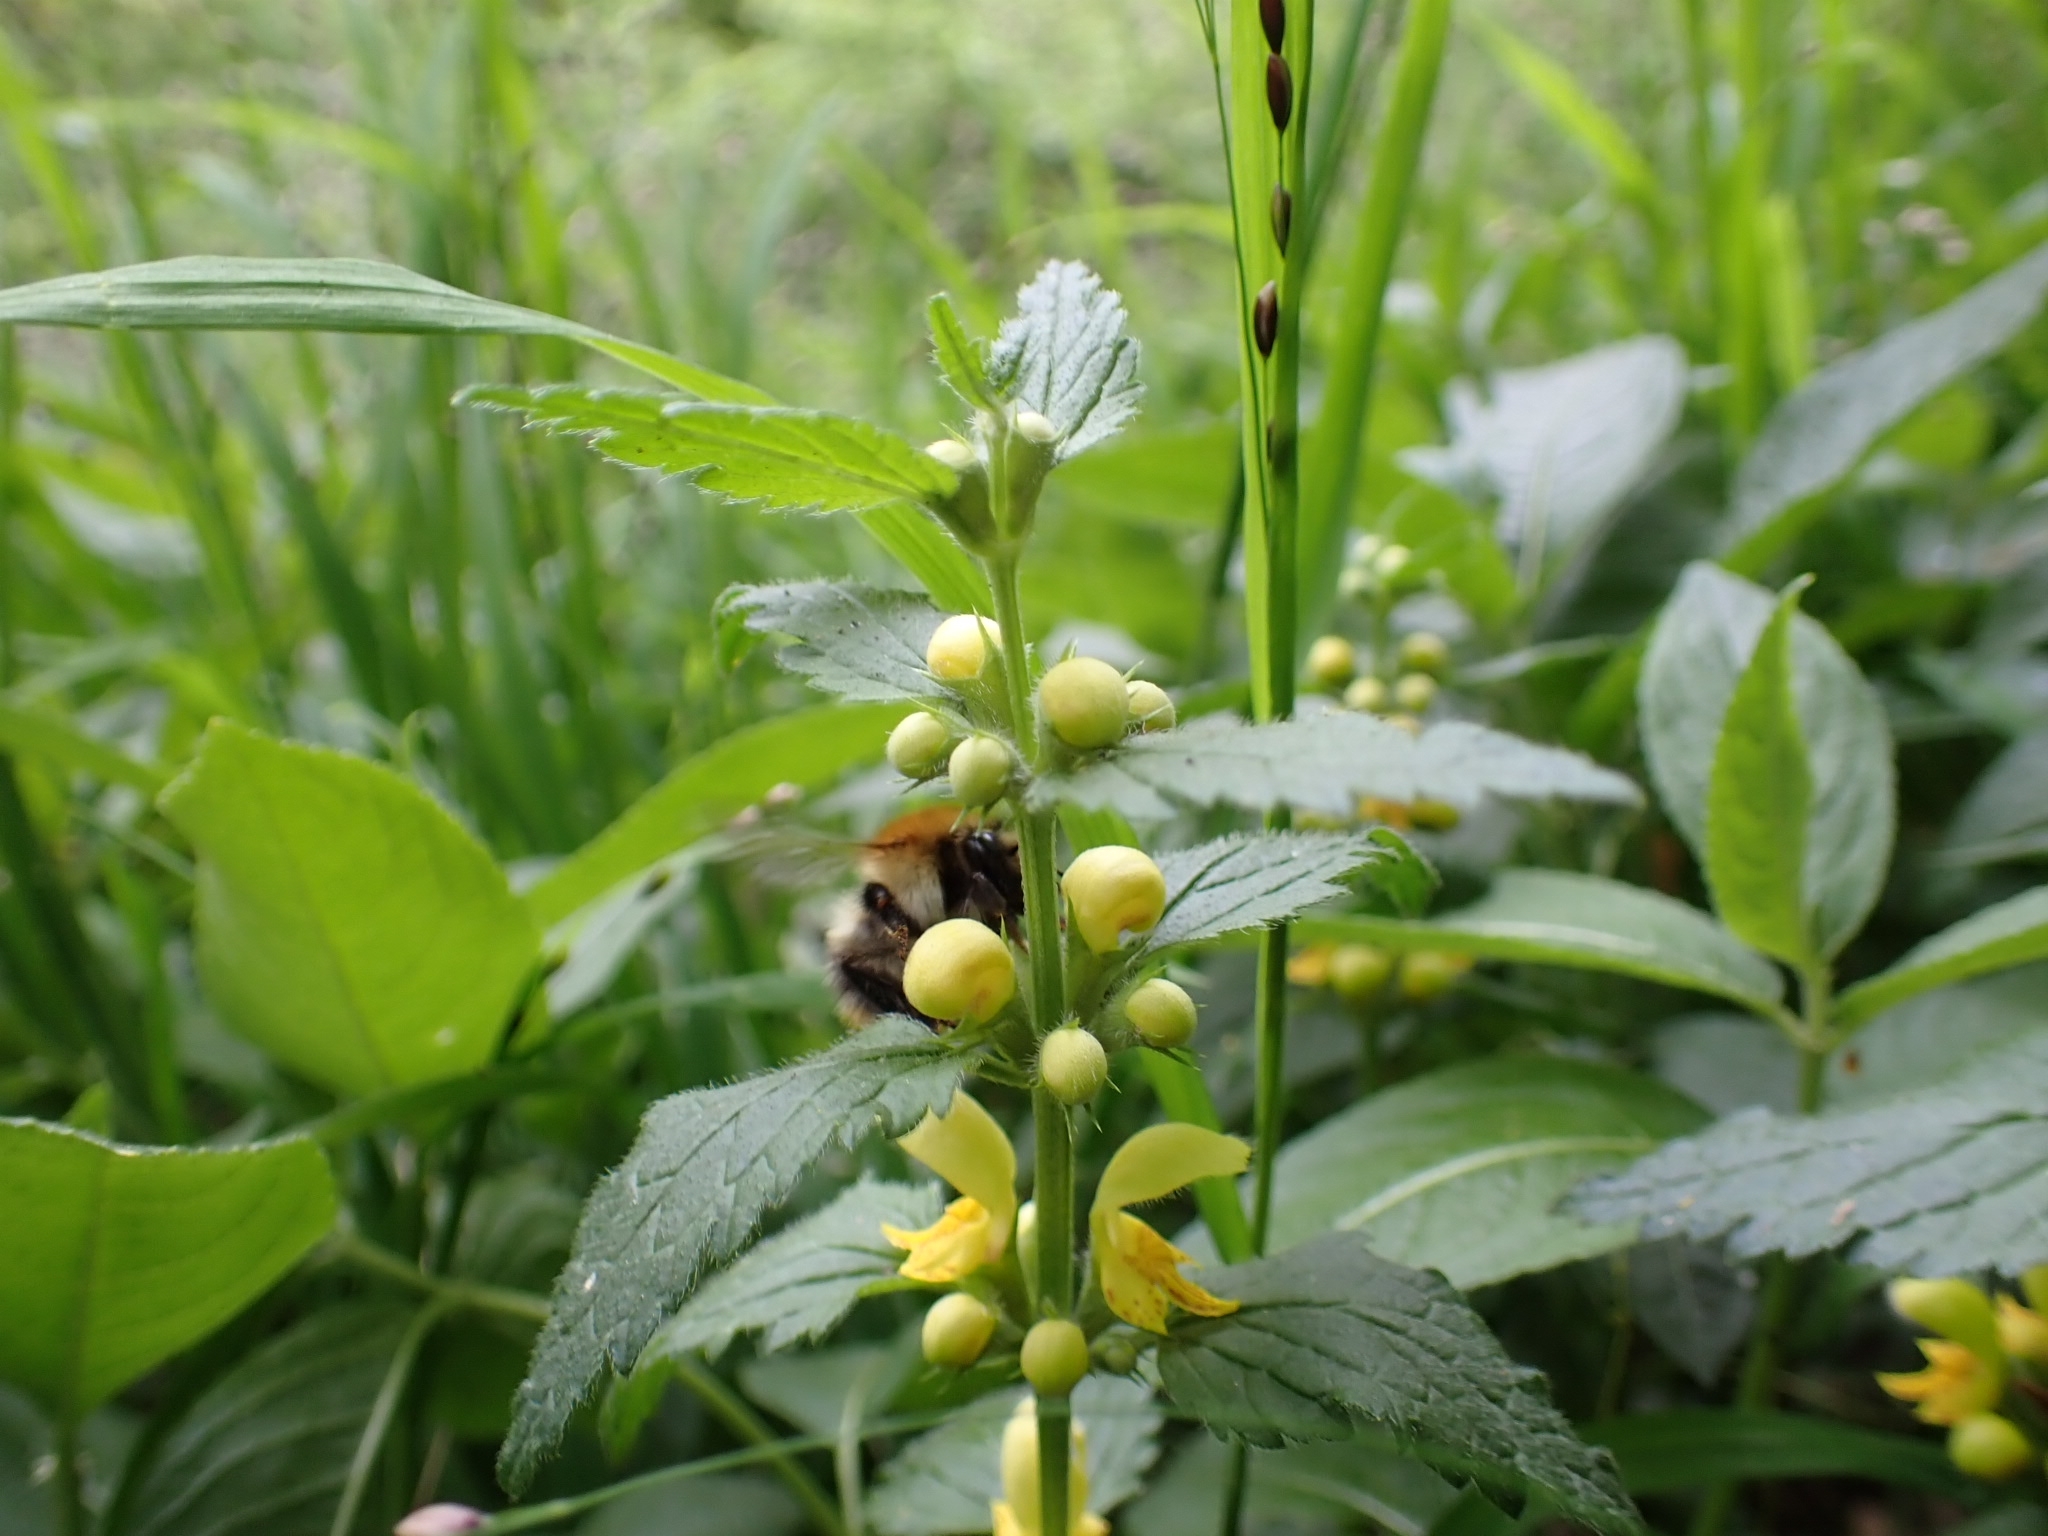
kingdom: Animalia
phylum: Arthropoda
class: Insecta
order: Hymenoptera
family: Apidae
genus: Bombus
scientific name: Bombus pascuorum
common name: Common carder bee
